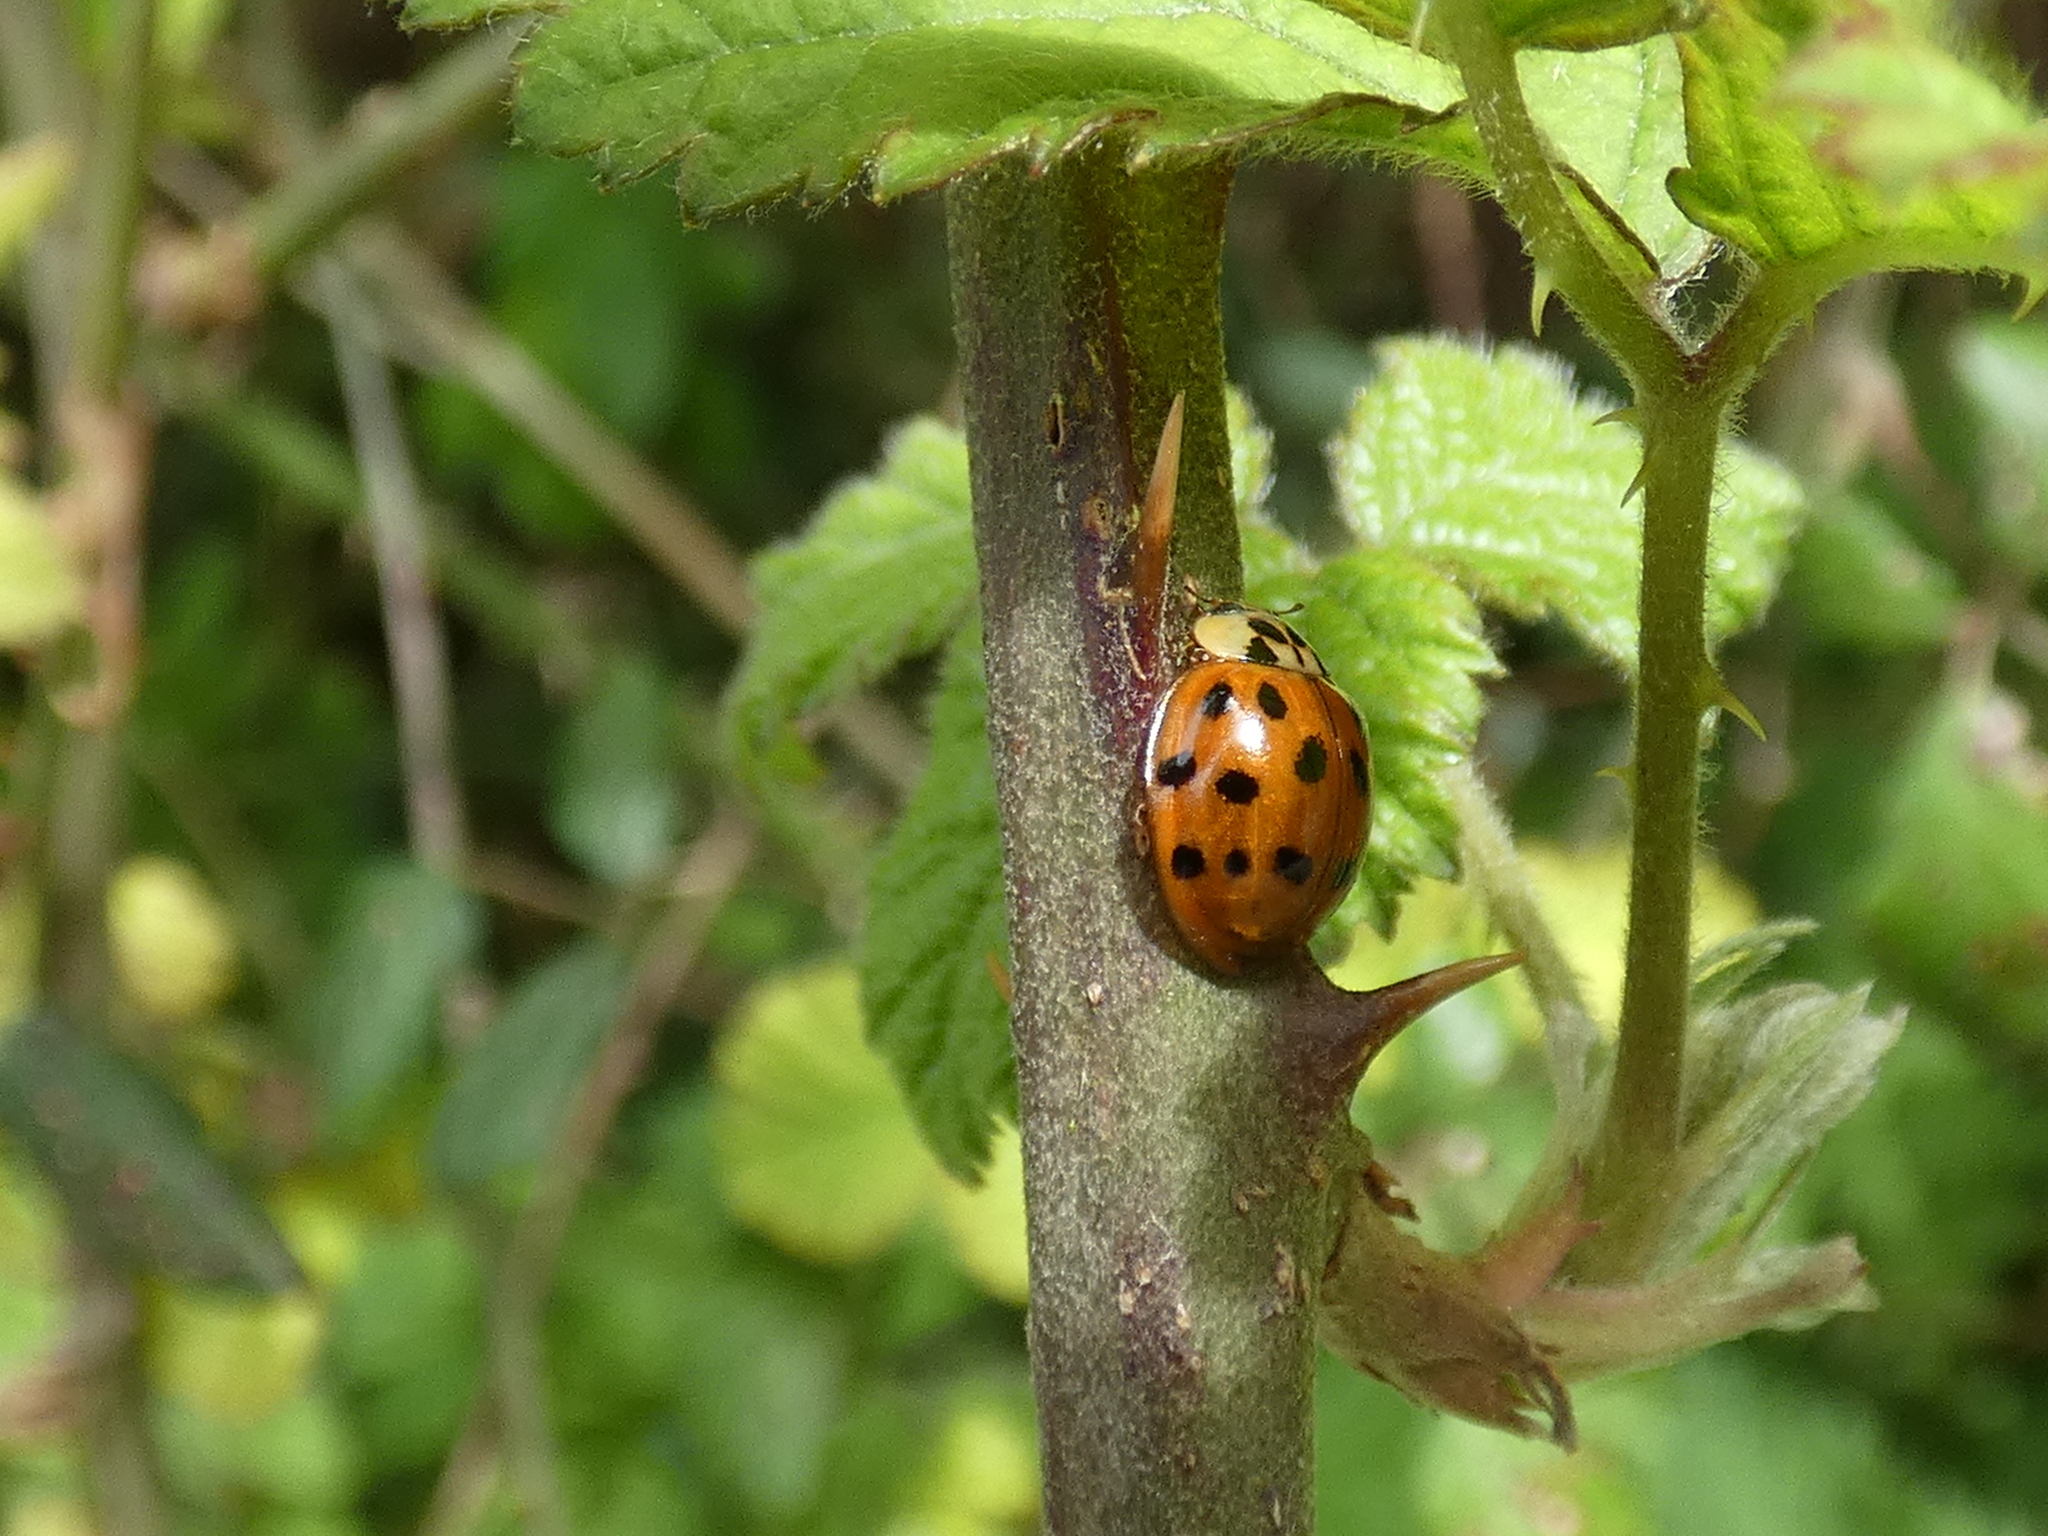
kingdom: Animalia
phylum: Arthropoda
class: Insecta
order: Coleoptera
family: Coccinellidae
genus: Harmonia
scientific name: Harmonia axyridis
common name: Harlequin ladybird
